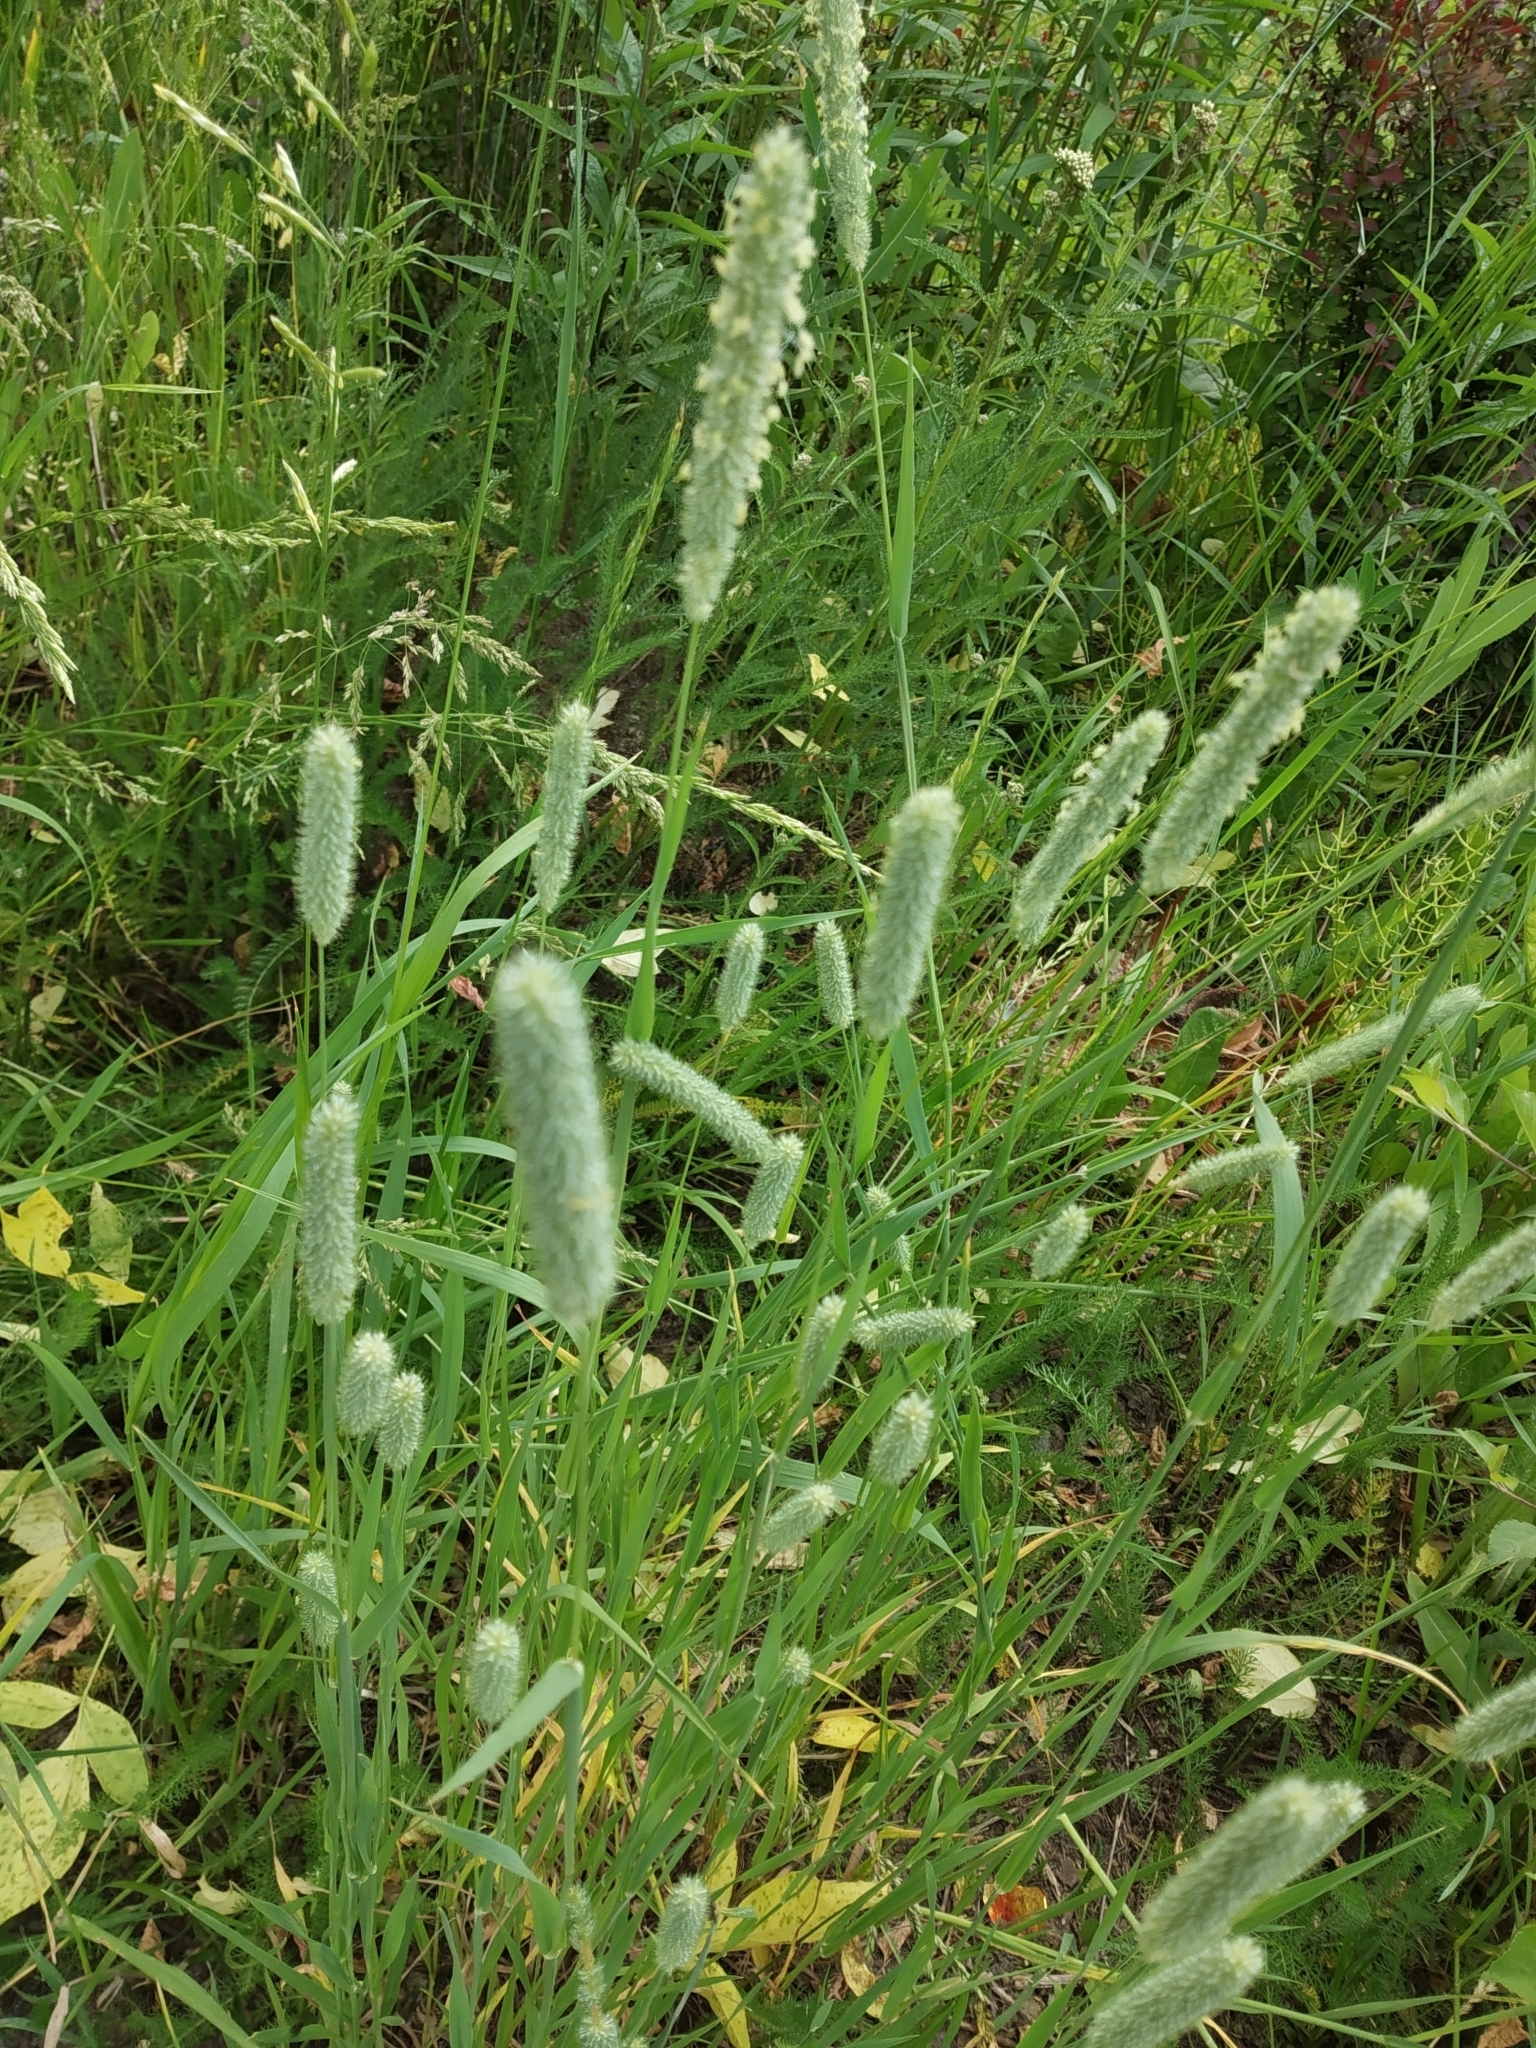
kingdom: Plantae
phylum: Tracheophyta
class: Liliopsida
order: Poales
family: Poaceae
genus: Phleum
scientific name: Phleum pratense
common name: Timothy grass
